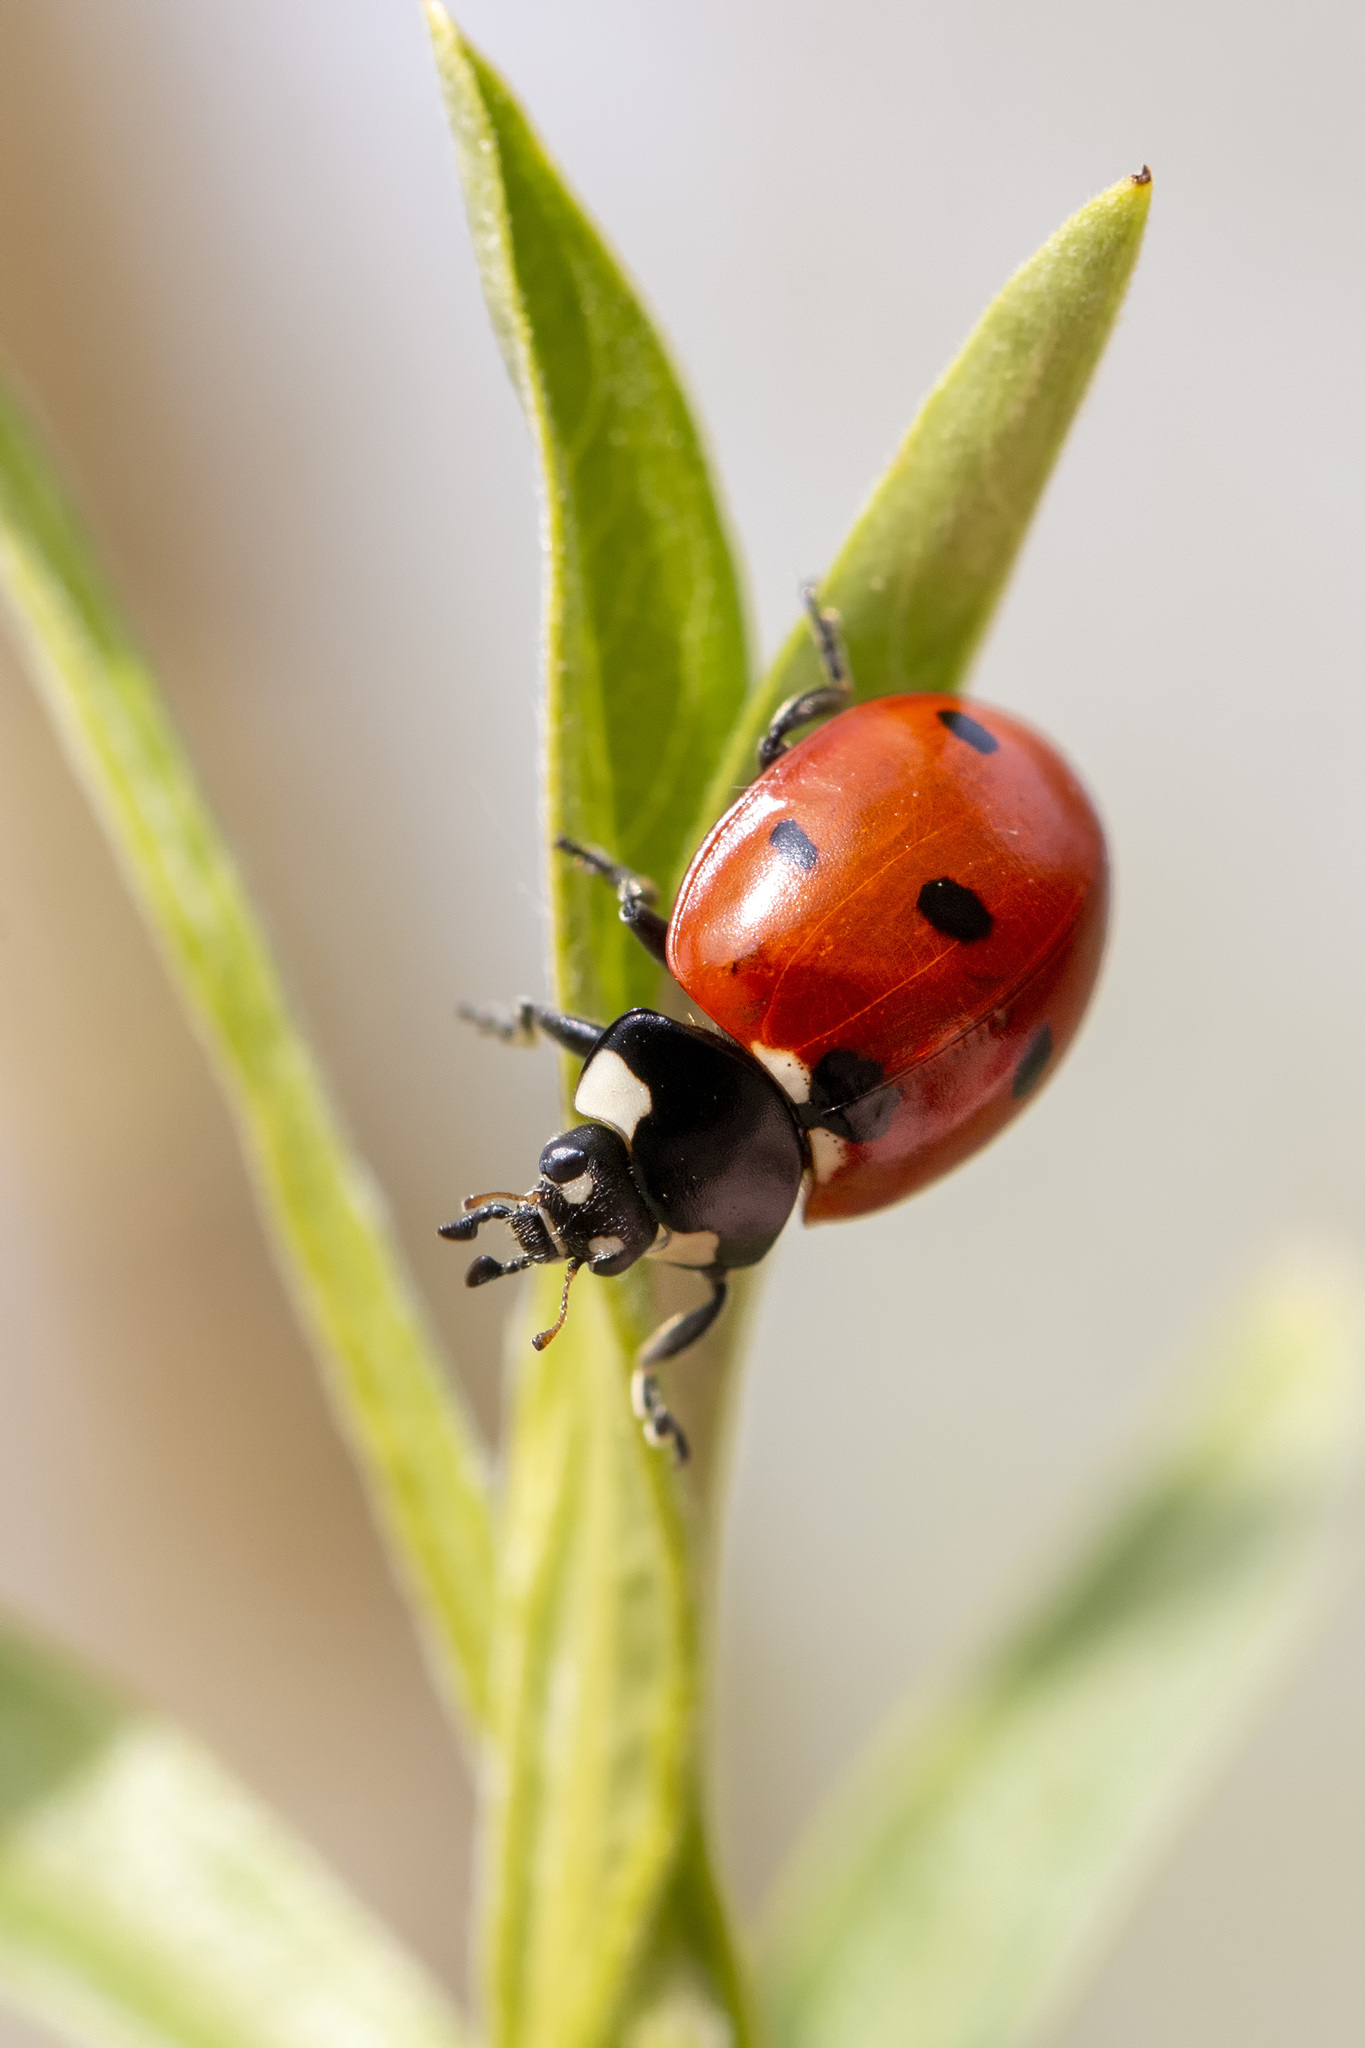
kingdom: Animalia
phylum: Arthropoda
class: Insecta
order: Coleoptera
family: Coccinellidae
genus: Coccinella
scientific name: Coccinella septempunctata
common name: Sevenspotted lady beetle
